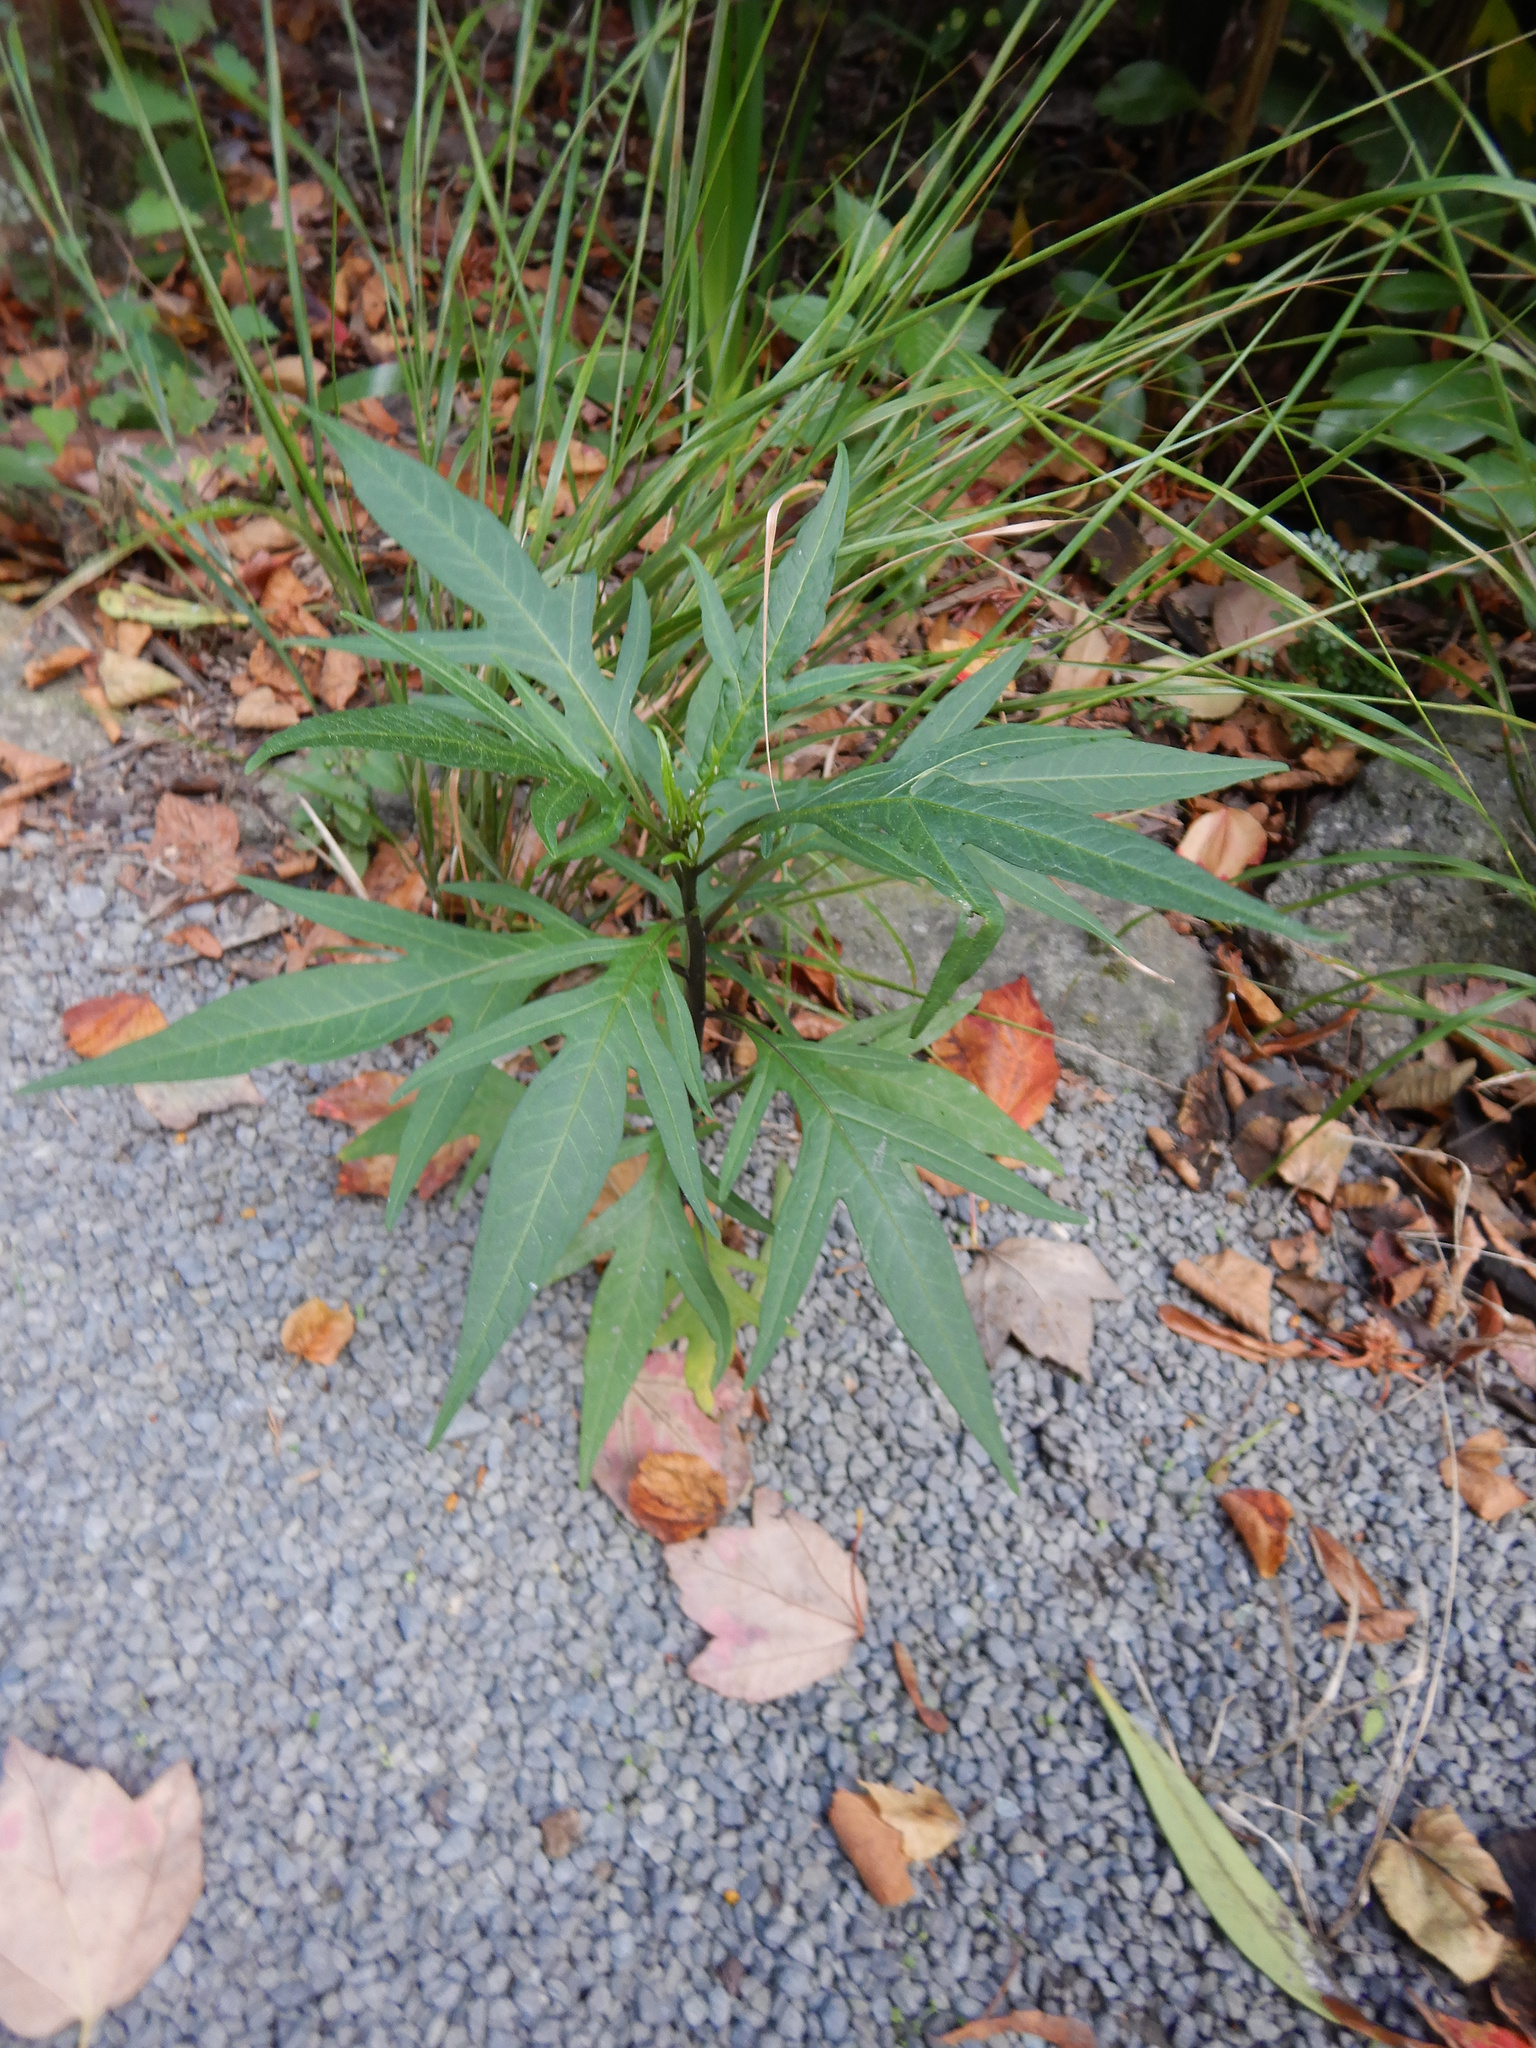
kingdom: Plantae
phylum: Tracheophyta
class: Magnoliopsida
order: Solanales
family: Solanaceae
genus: Solanum
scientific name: Solanum
